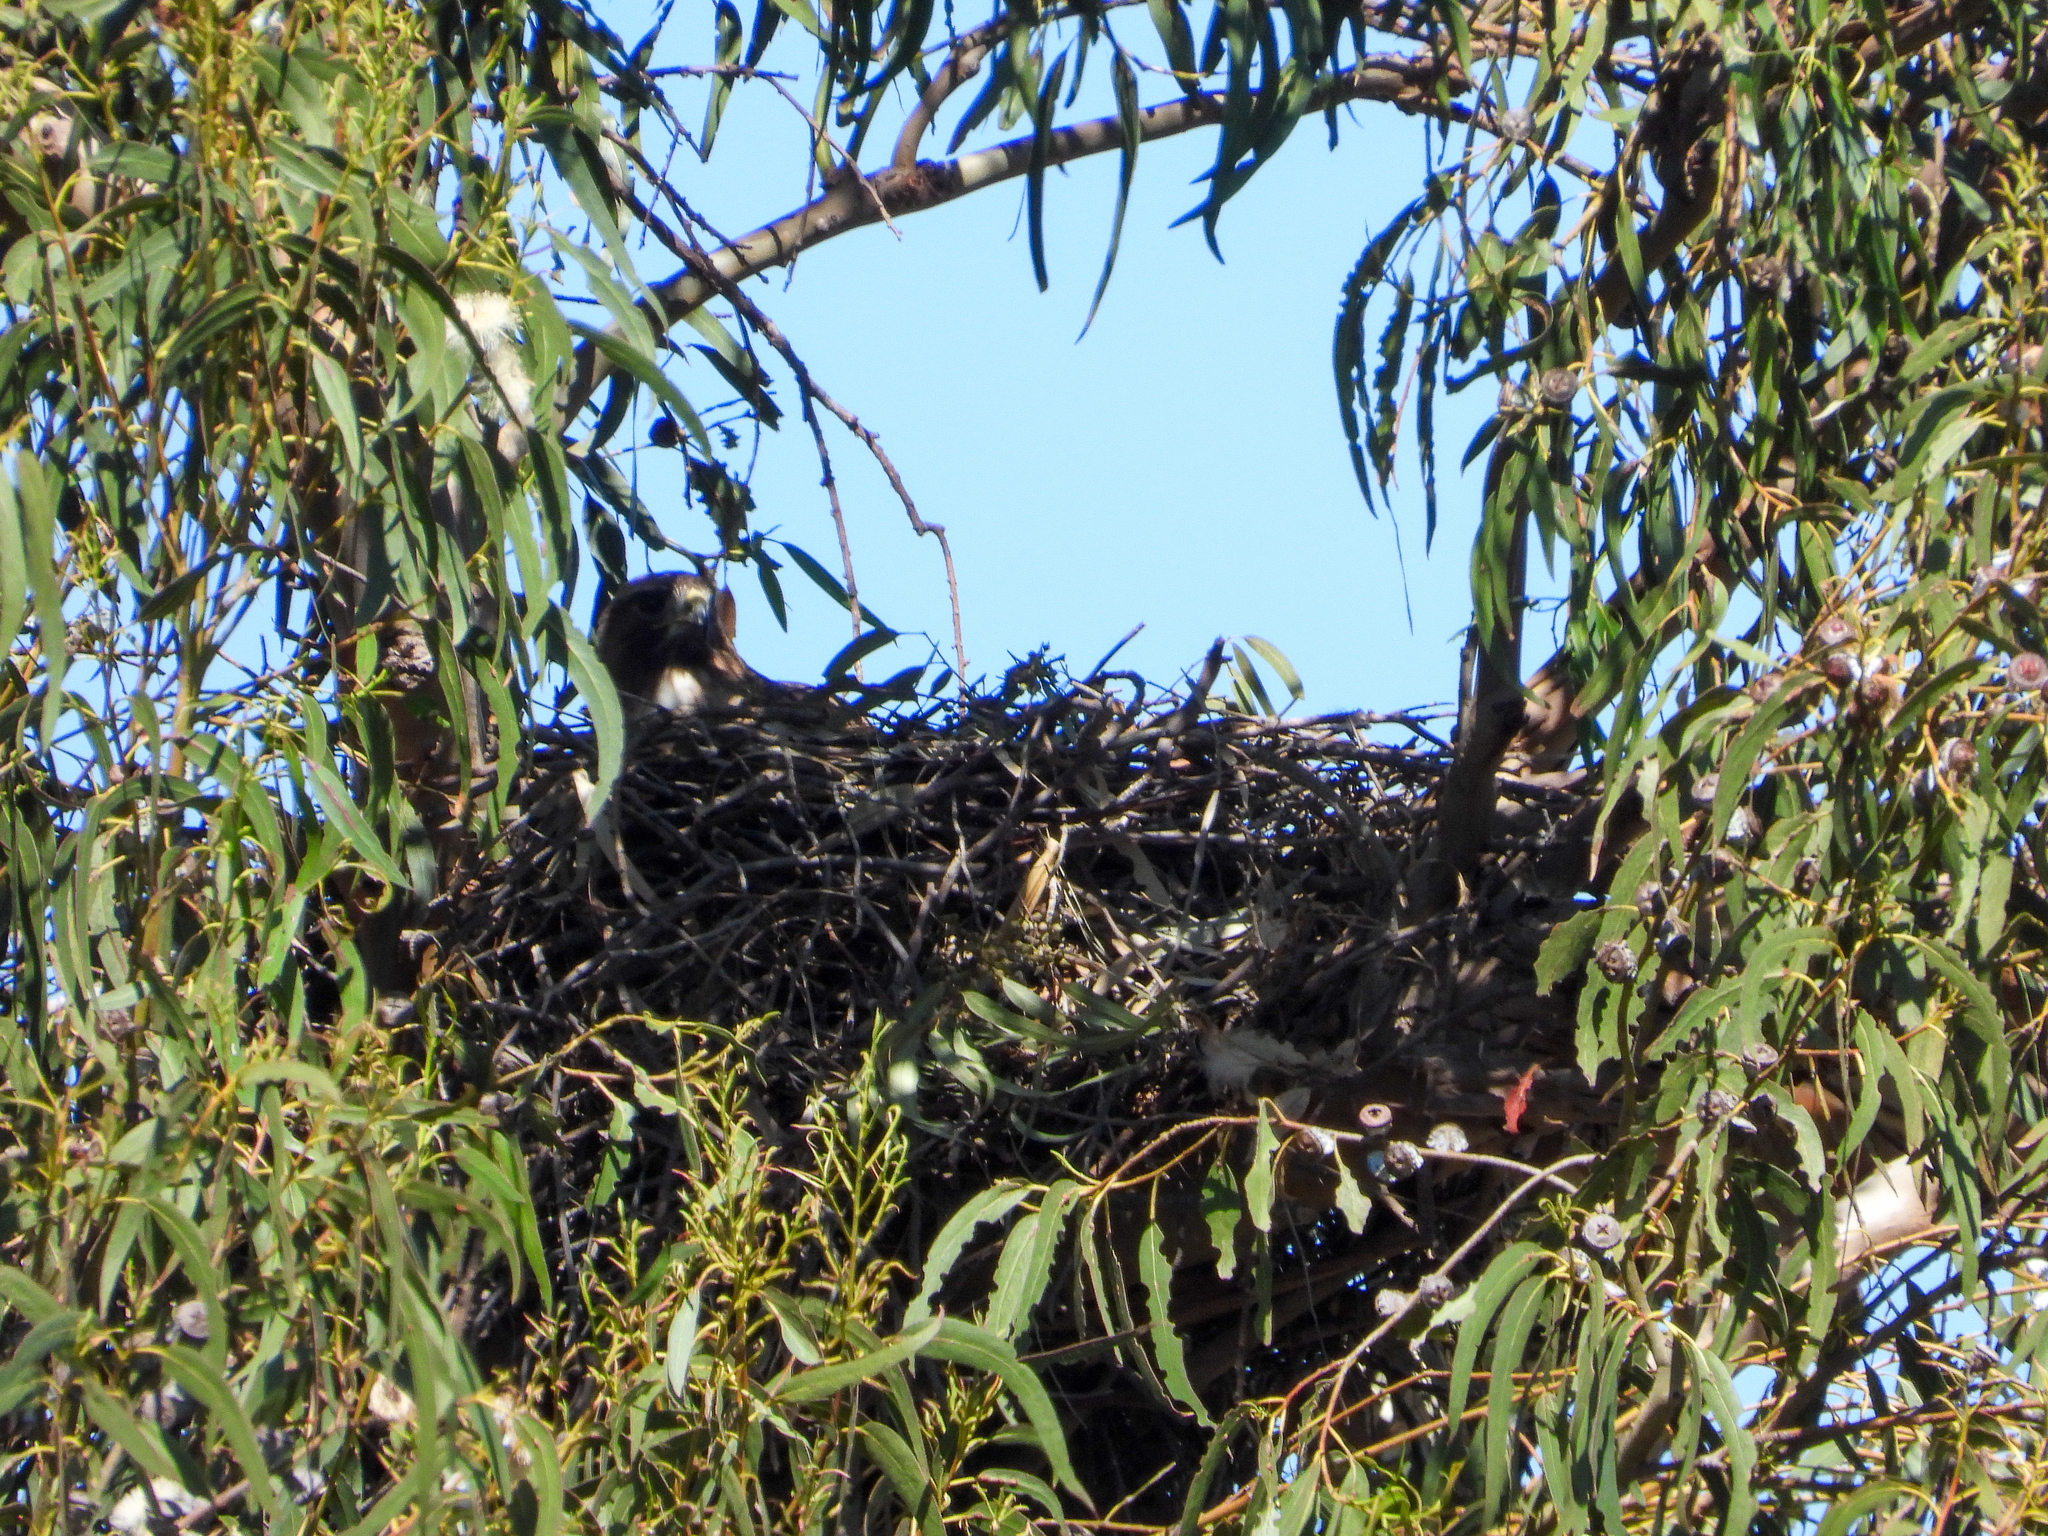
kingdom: Animalia
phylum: Chordata
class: Aves
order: Accipitriformes
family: Accipitridae
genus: Buteo
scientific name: Buteo jamaicensis
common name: Red-tailed hawk
